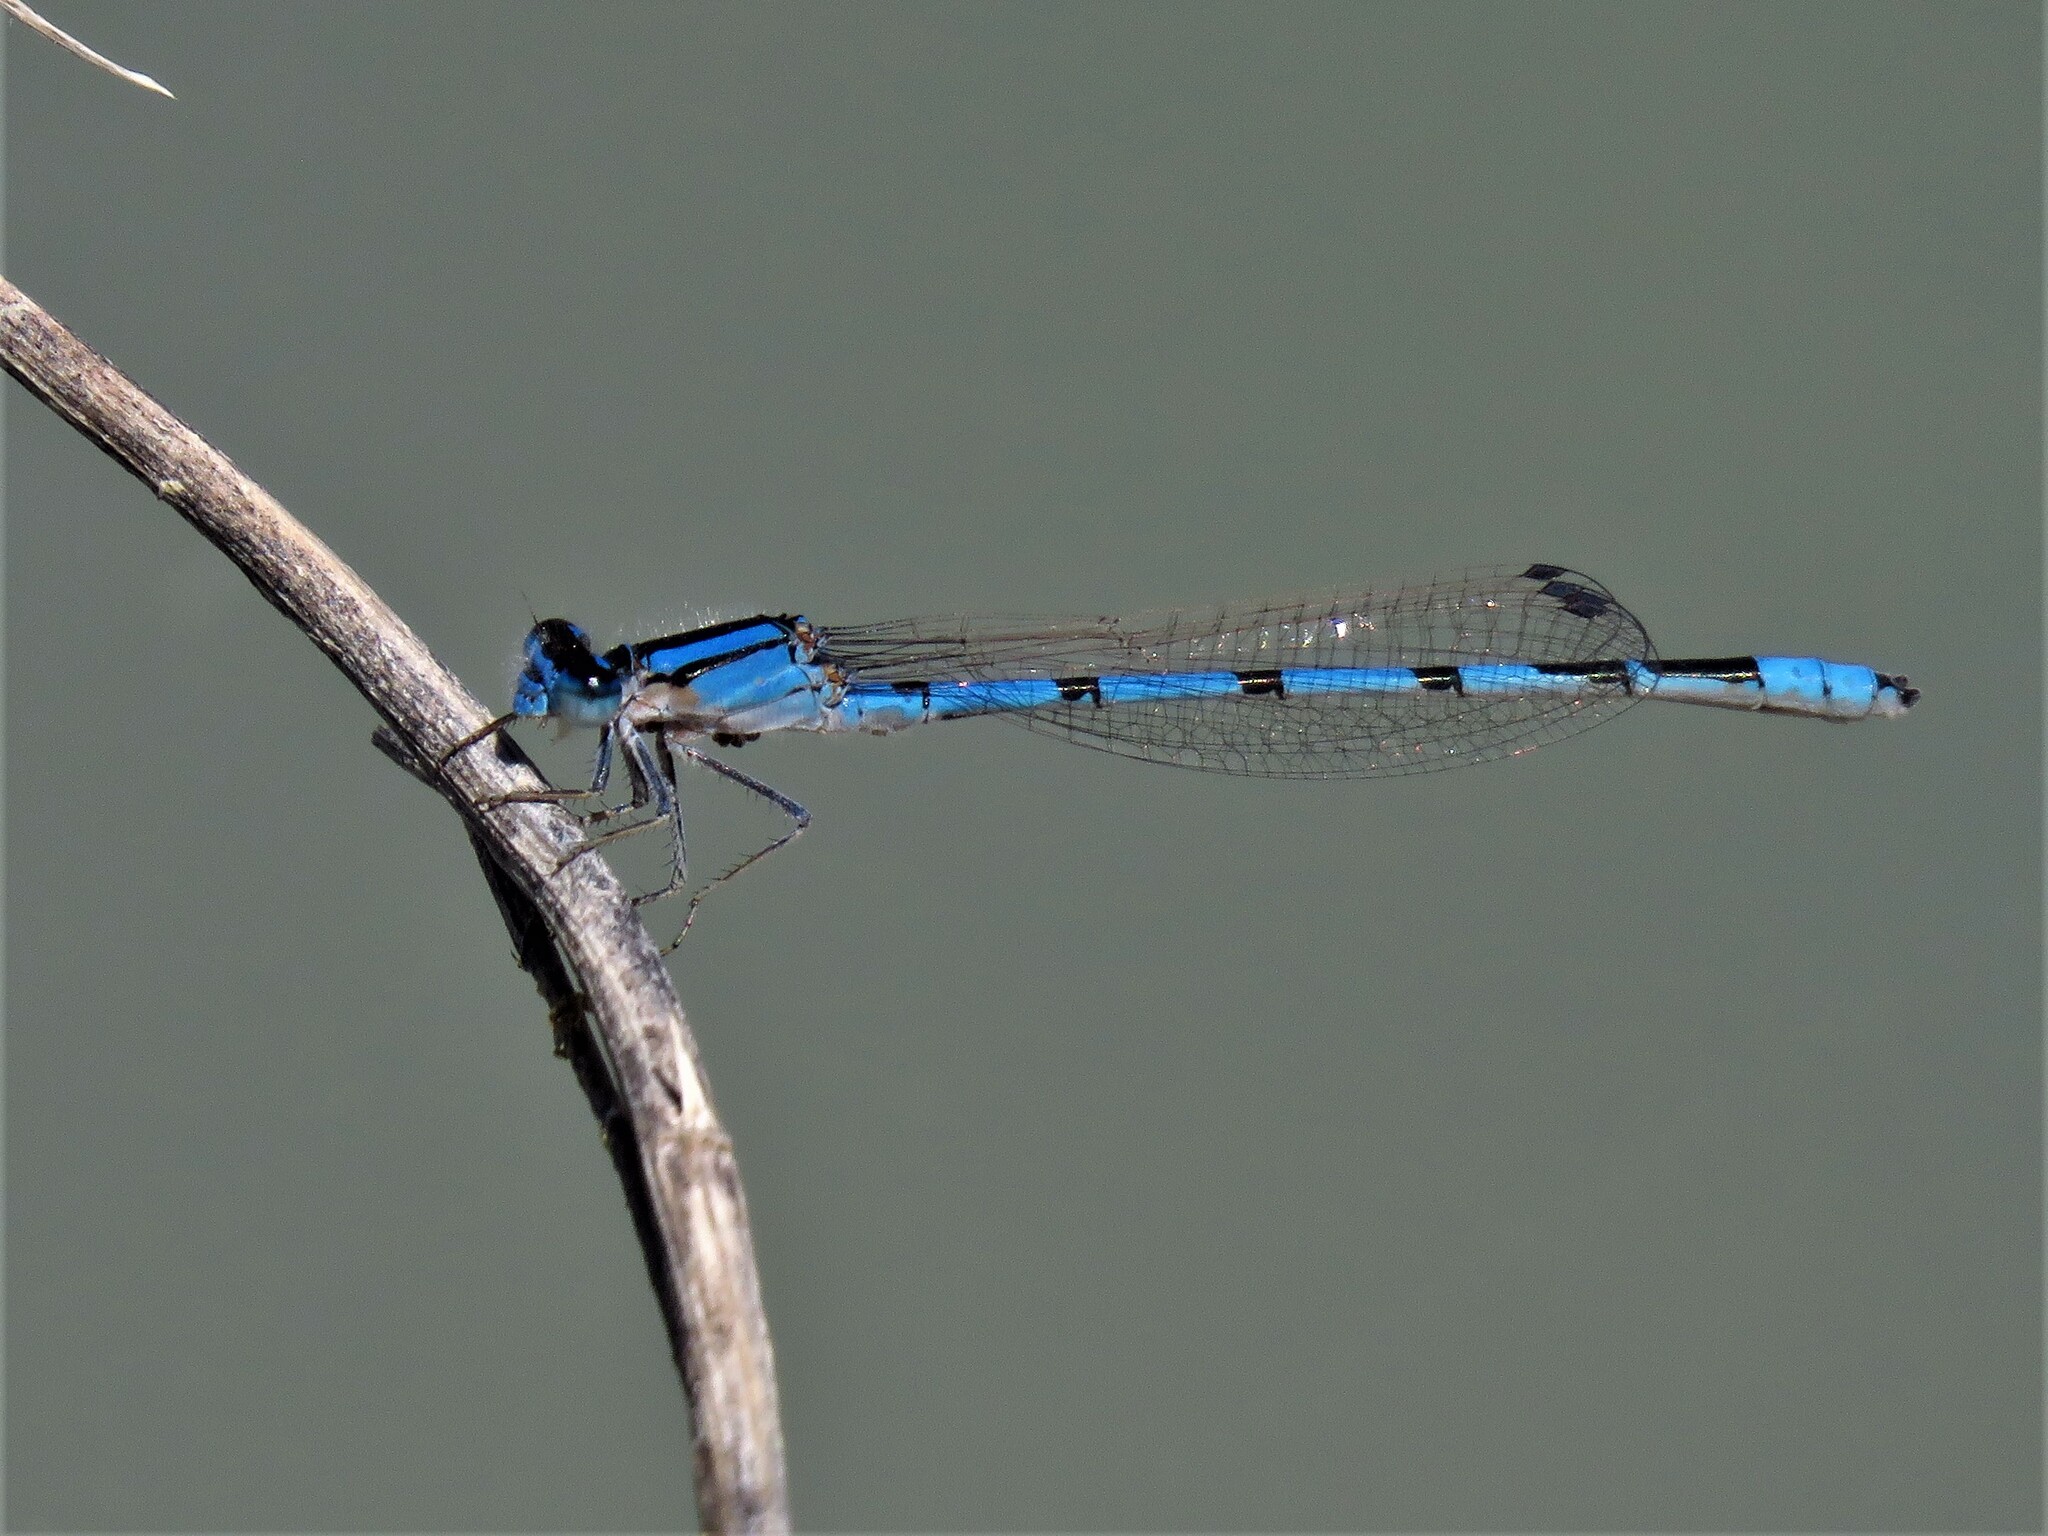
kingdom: Animalia
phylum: Arthropoda
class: Insecta
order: Odonata
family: Coenagrionidae
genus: Enallagma
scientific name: Enallagma civile
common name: Damselfly
